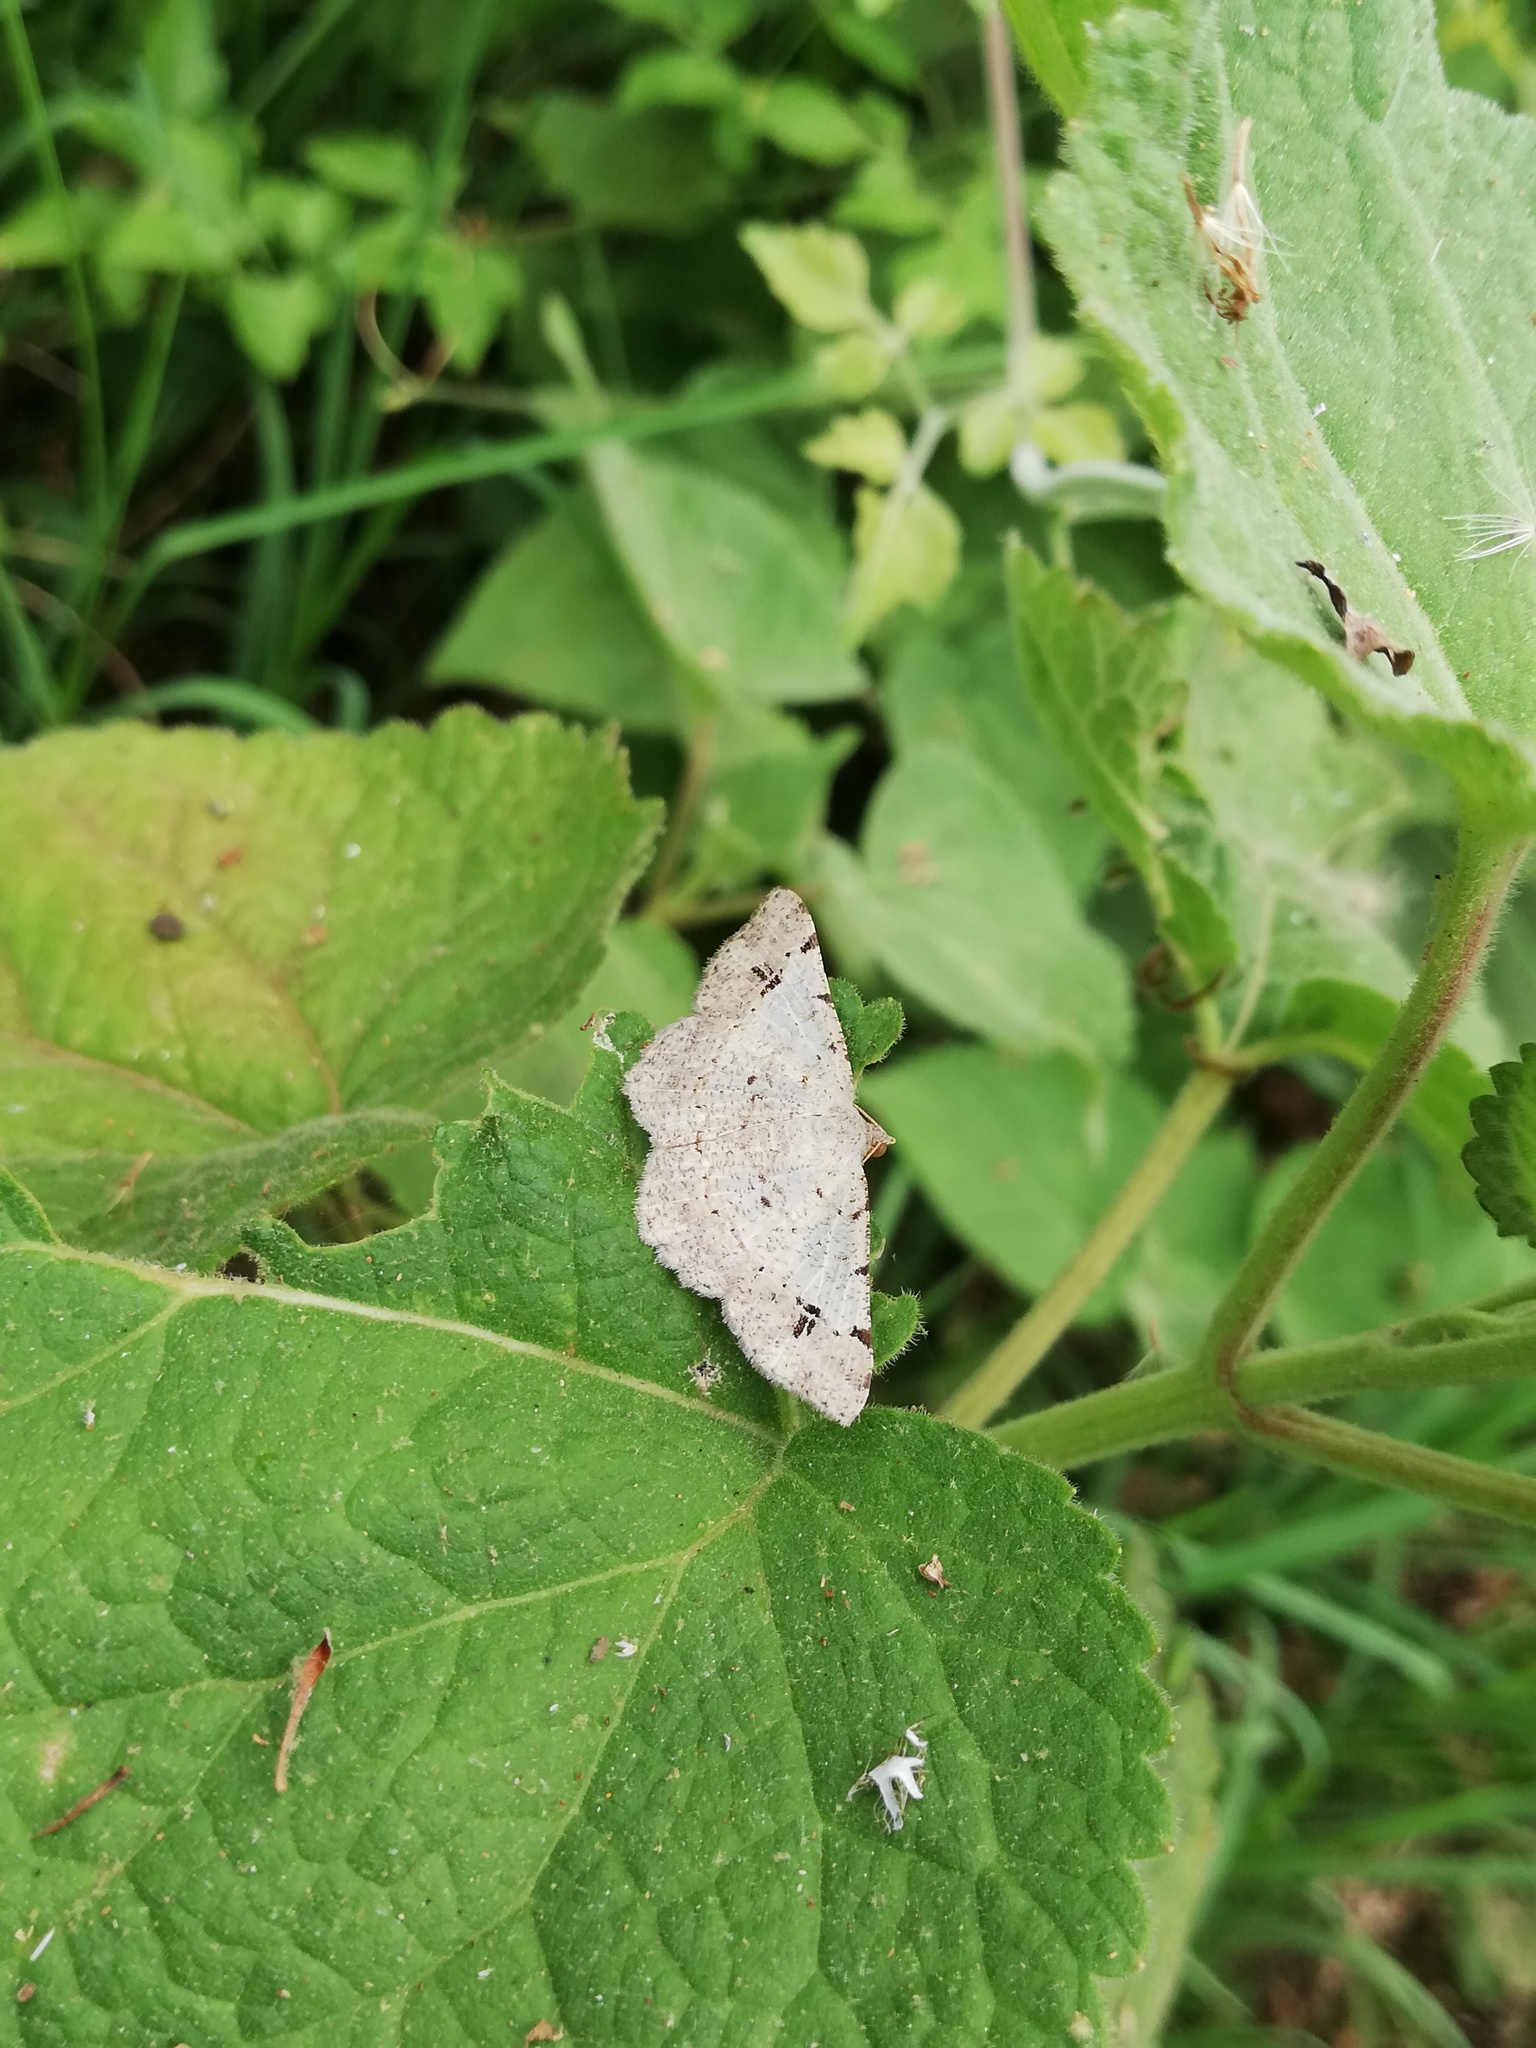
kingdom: Animalia
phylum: Arthropoda
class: Insecta
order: Lepidoptera
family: Geometridae
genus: Macaria
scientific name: Macaria aemulataria
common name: Common angle
